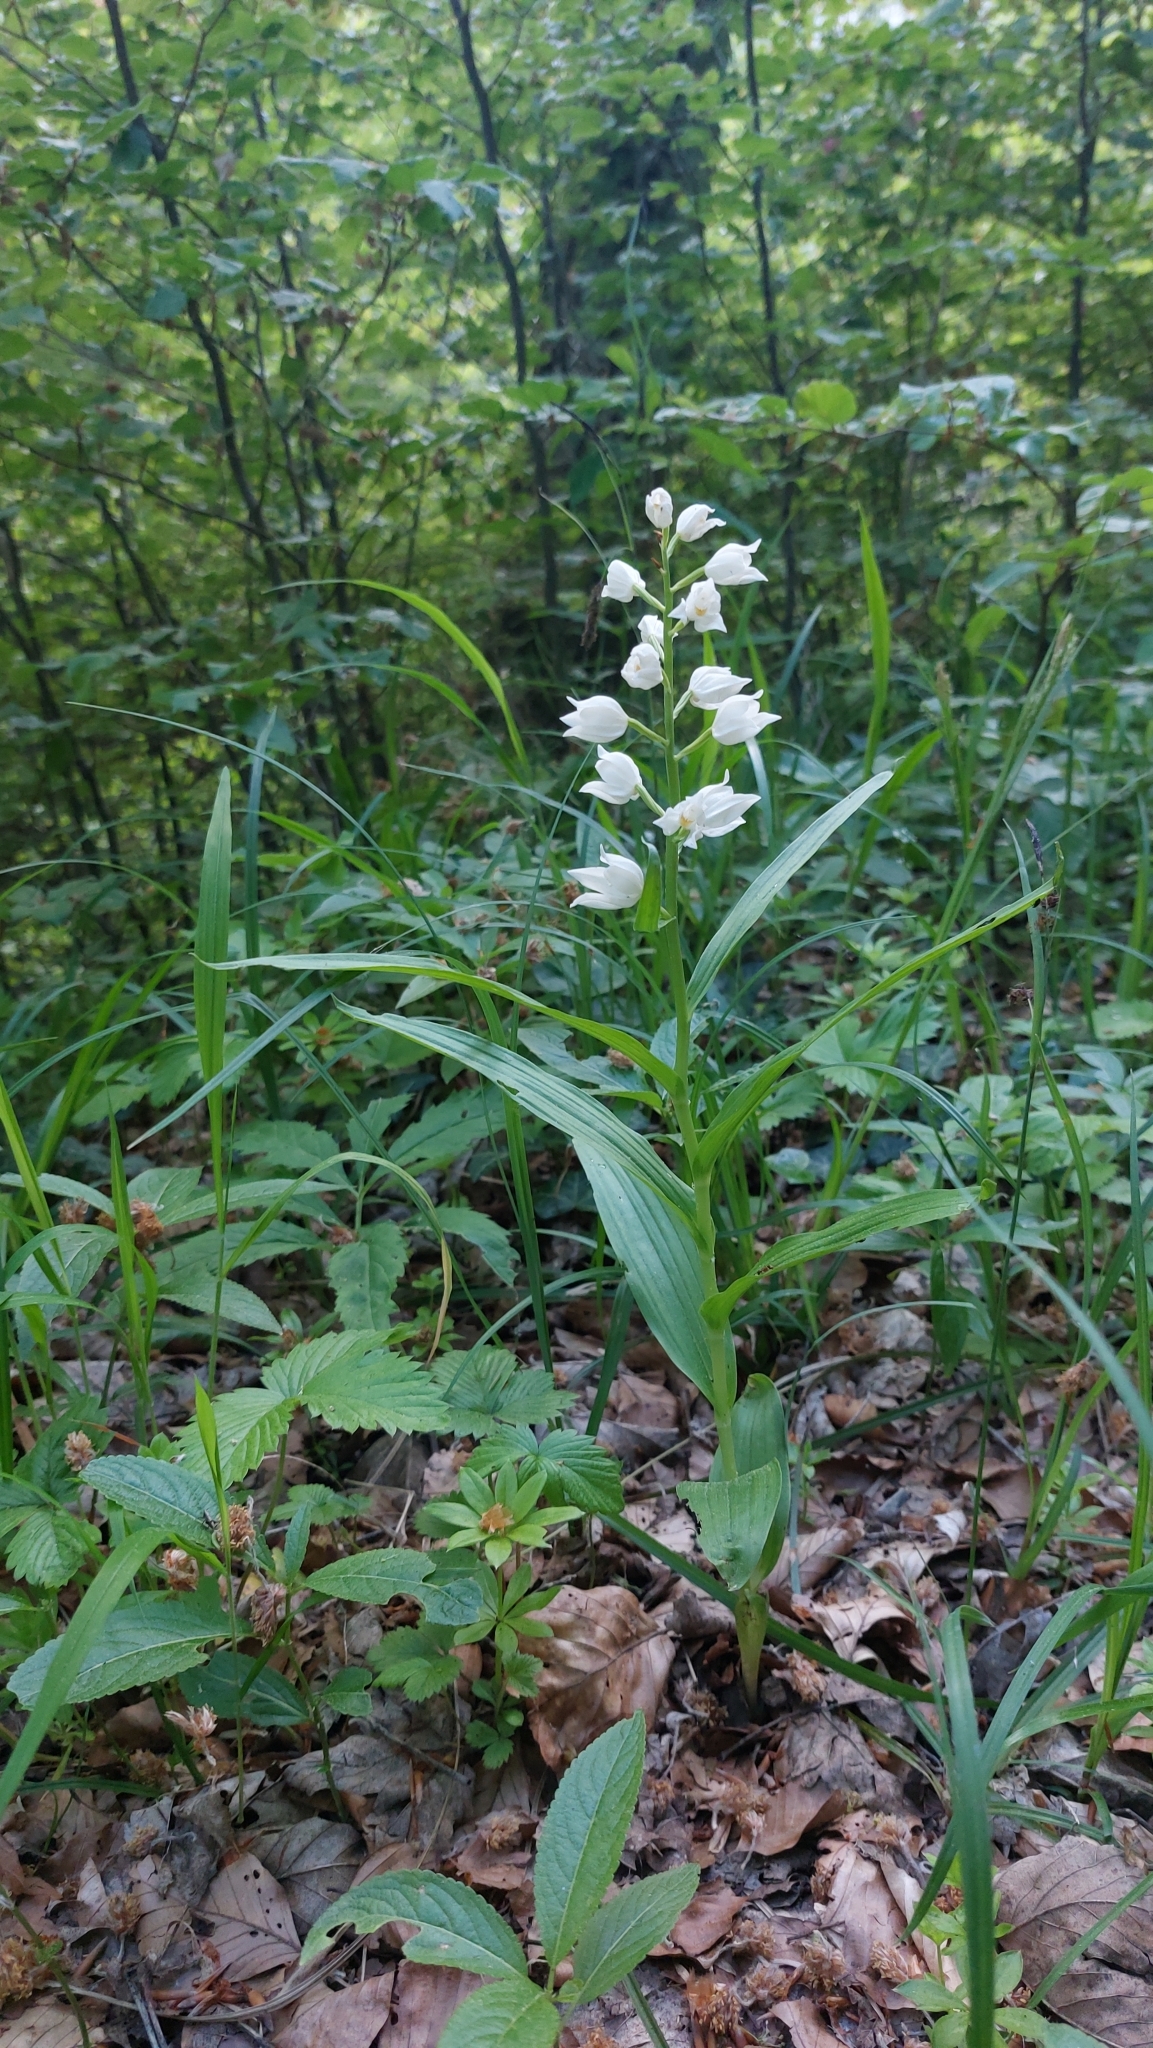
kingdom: Plantae
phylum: Tracheophyta
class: Liliopsida
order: Asparagales
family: Orchidaceae
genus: Cephalanthera
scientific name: Cephalanthera longifolia
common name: Narrow-leaved helleborine
